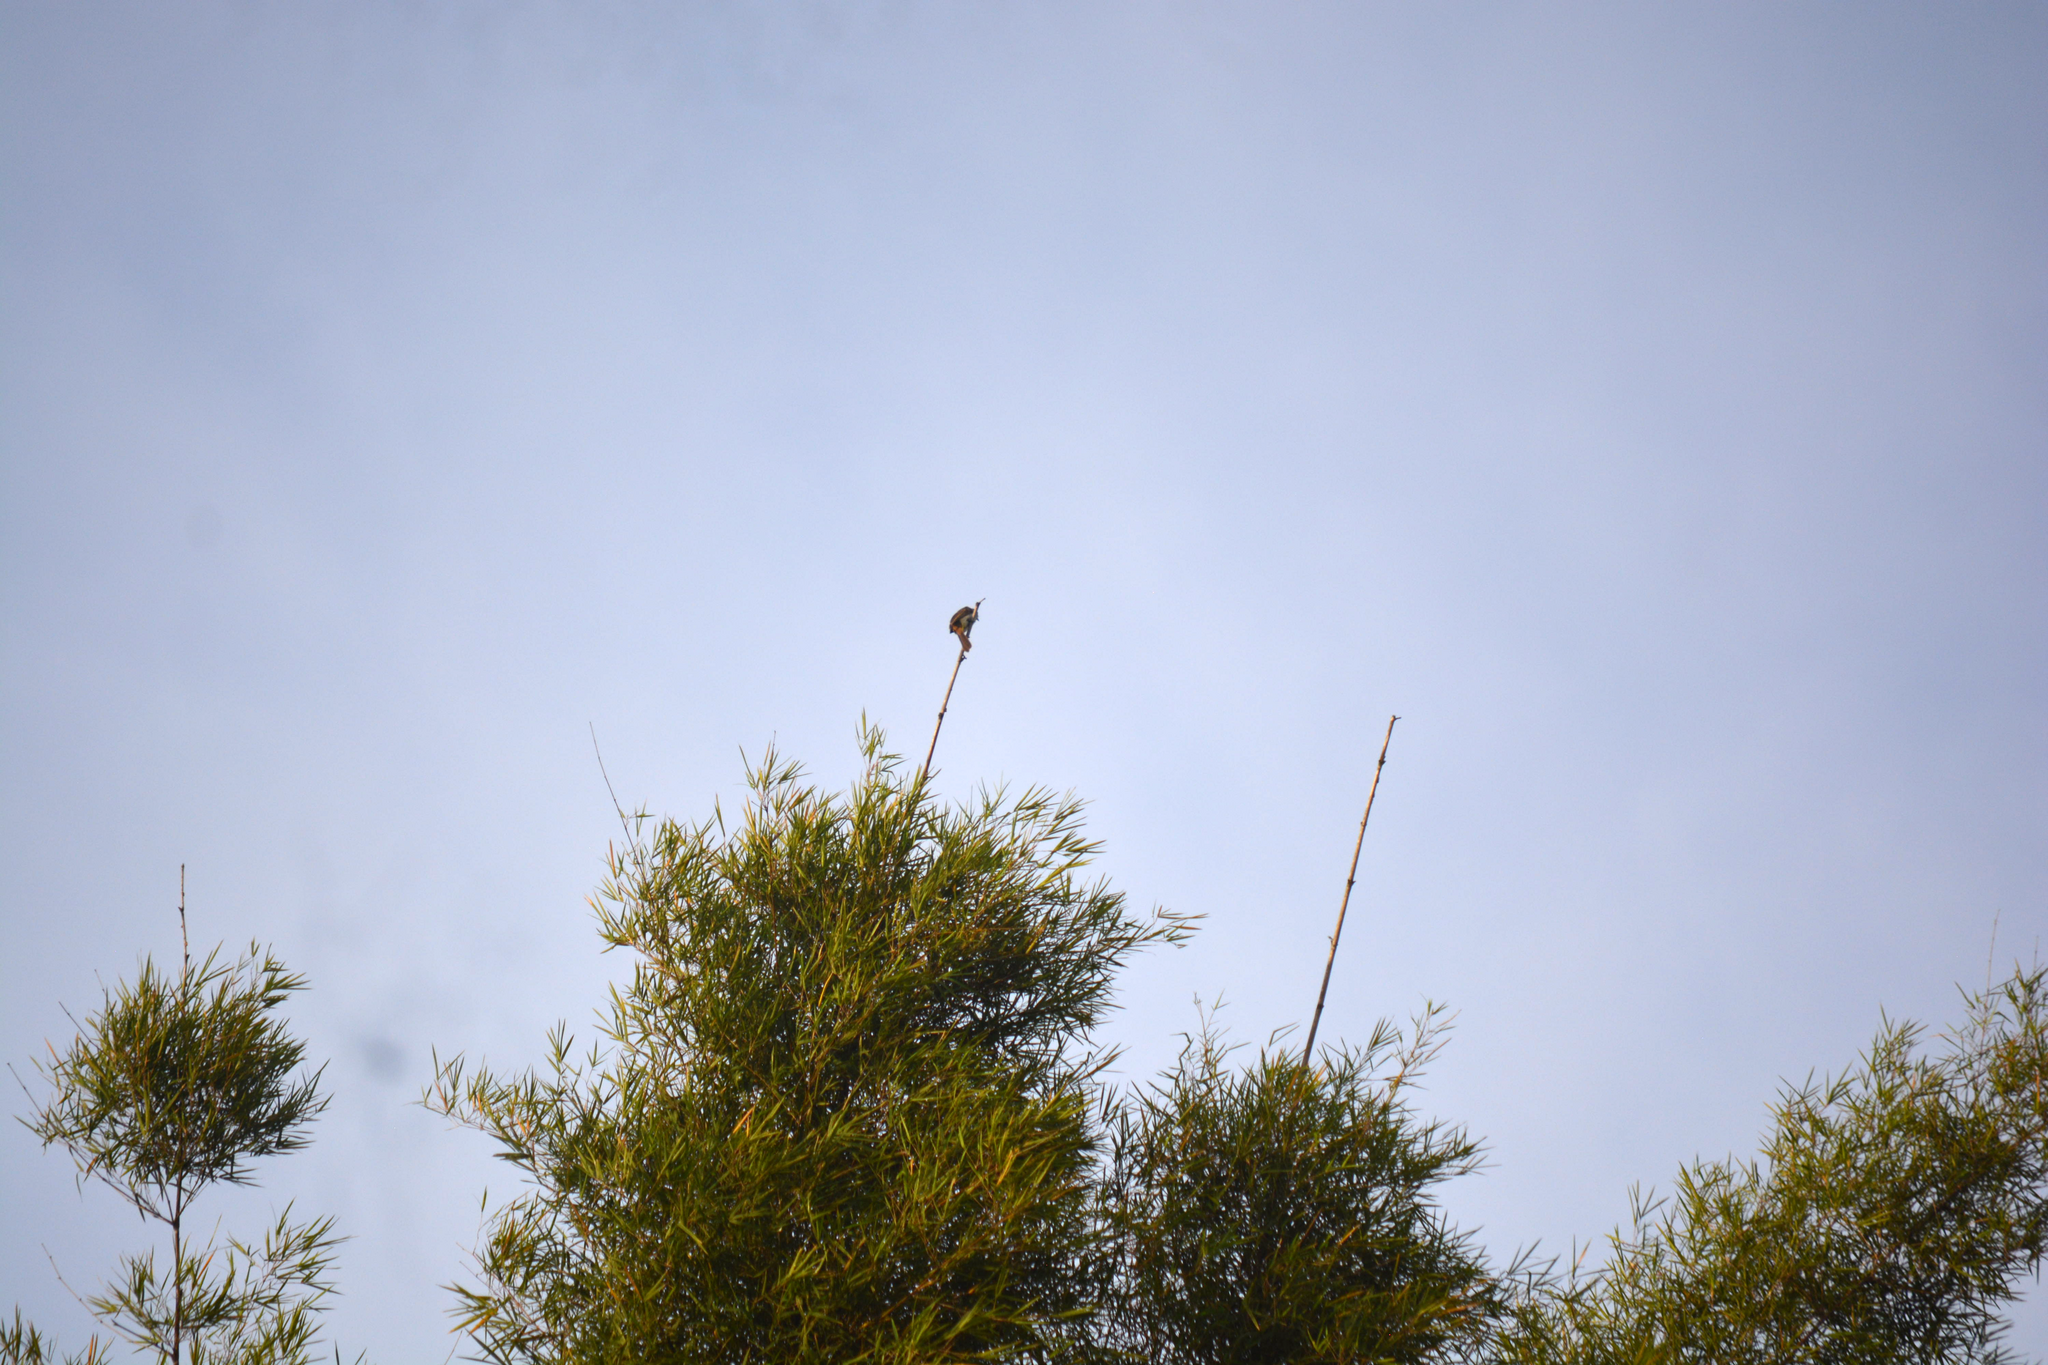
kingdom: Animalia
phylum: Chordata
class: Aves
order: Passeriformes
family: Pycnonotidae
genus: Pycnonotus
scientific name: Pycnonotus goiavier
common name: Yellow-vented bulbul
